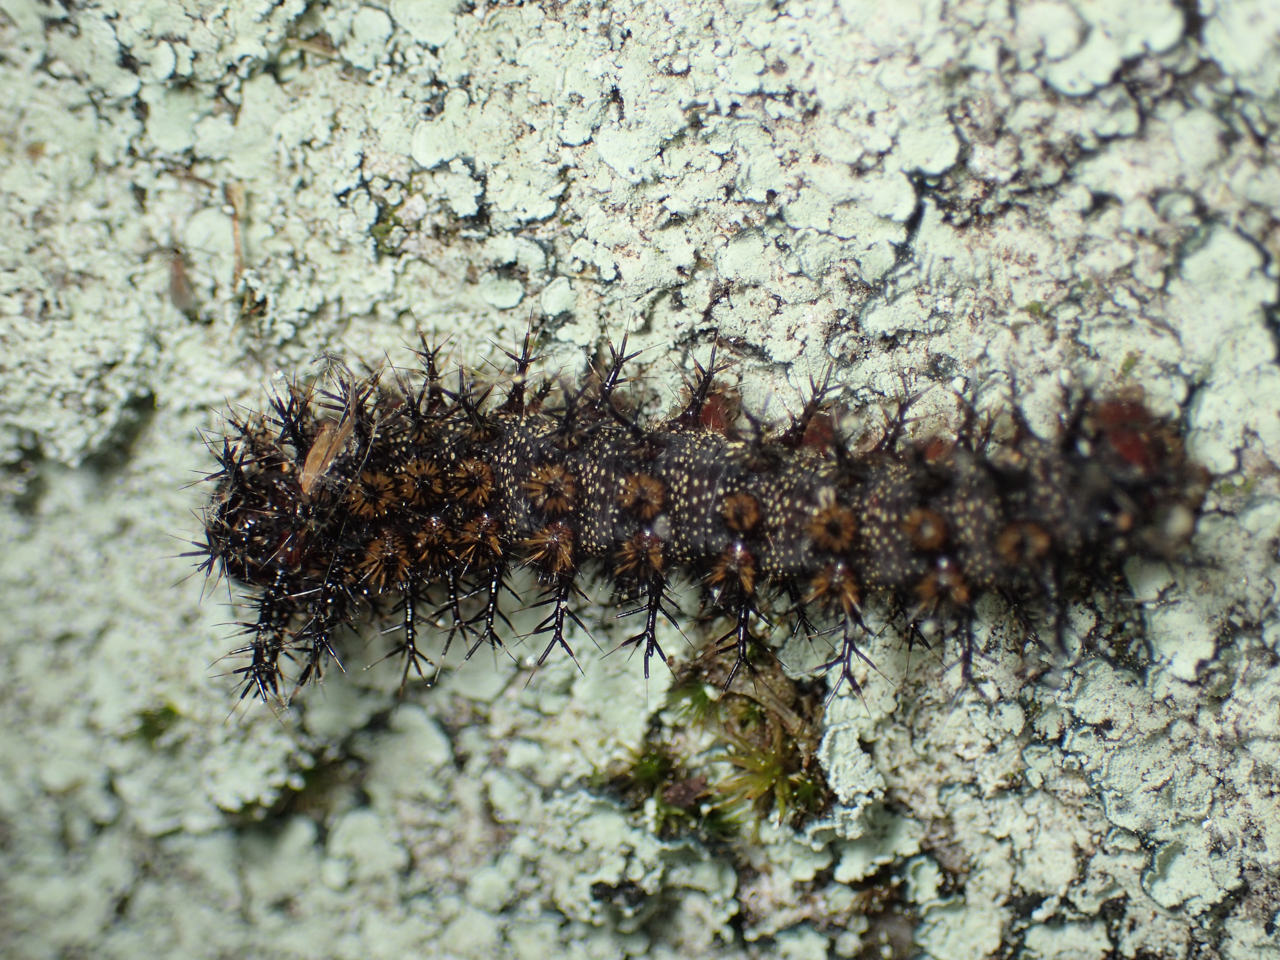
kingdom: Animalia
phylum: Arthropoda
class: Insecta
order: Lepidoptera
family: Saturniidae
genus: Hemileuca
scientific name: Hemileuca maia
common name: Eastern buckmoth
